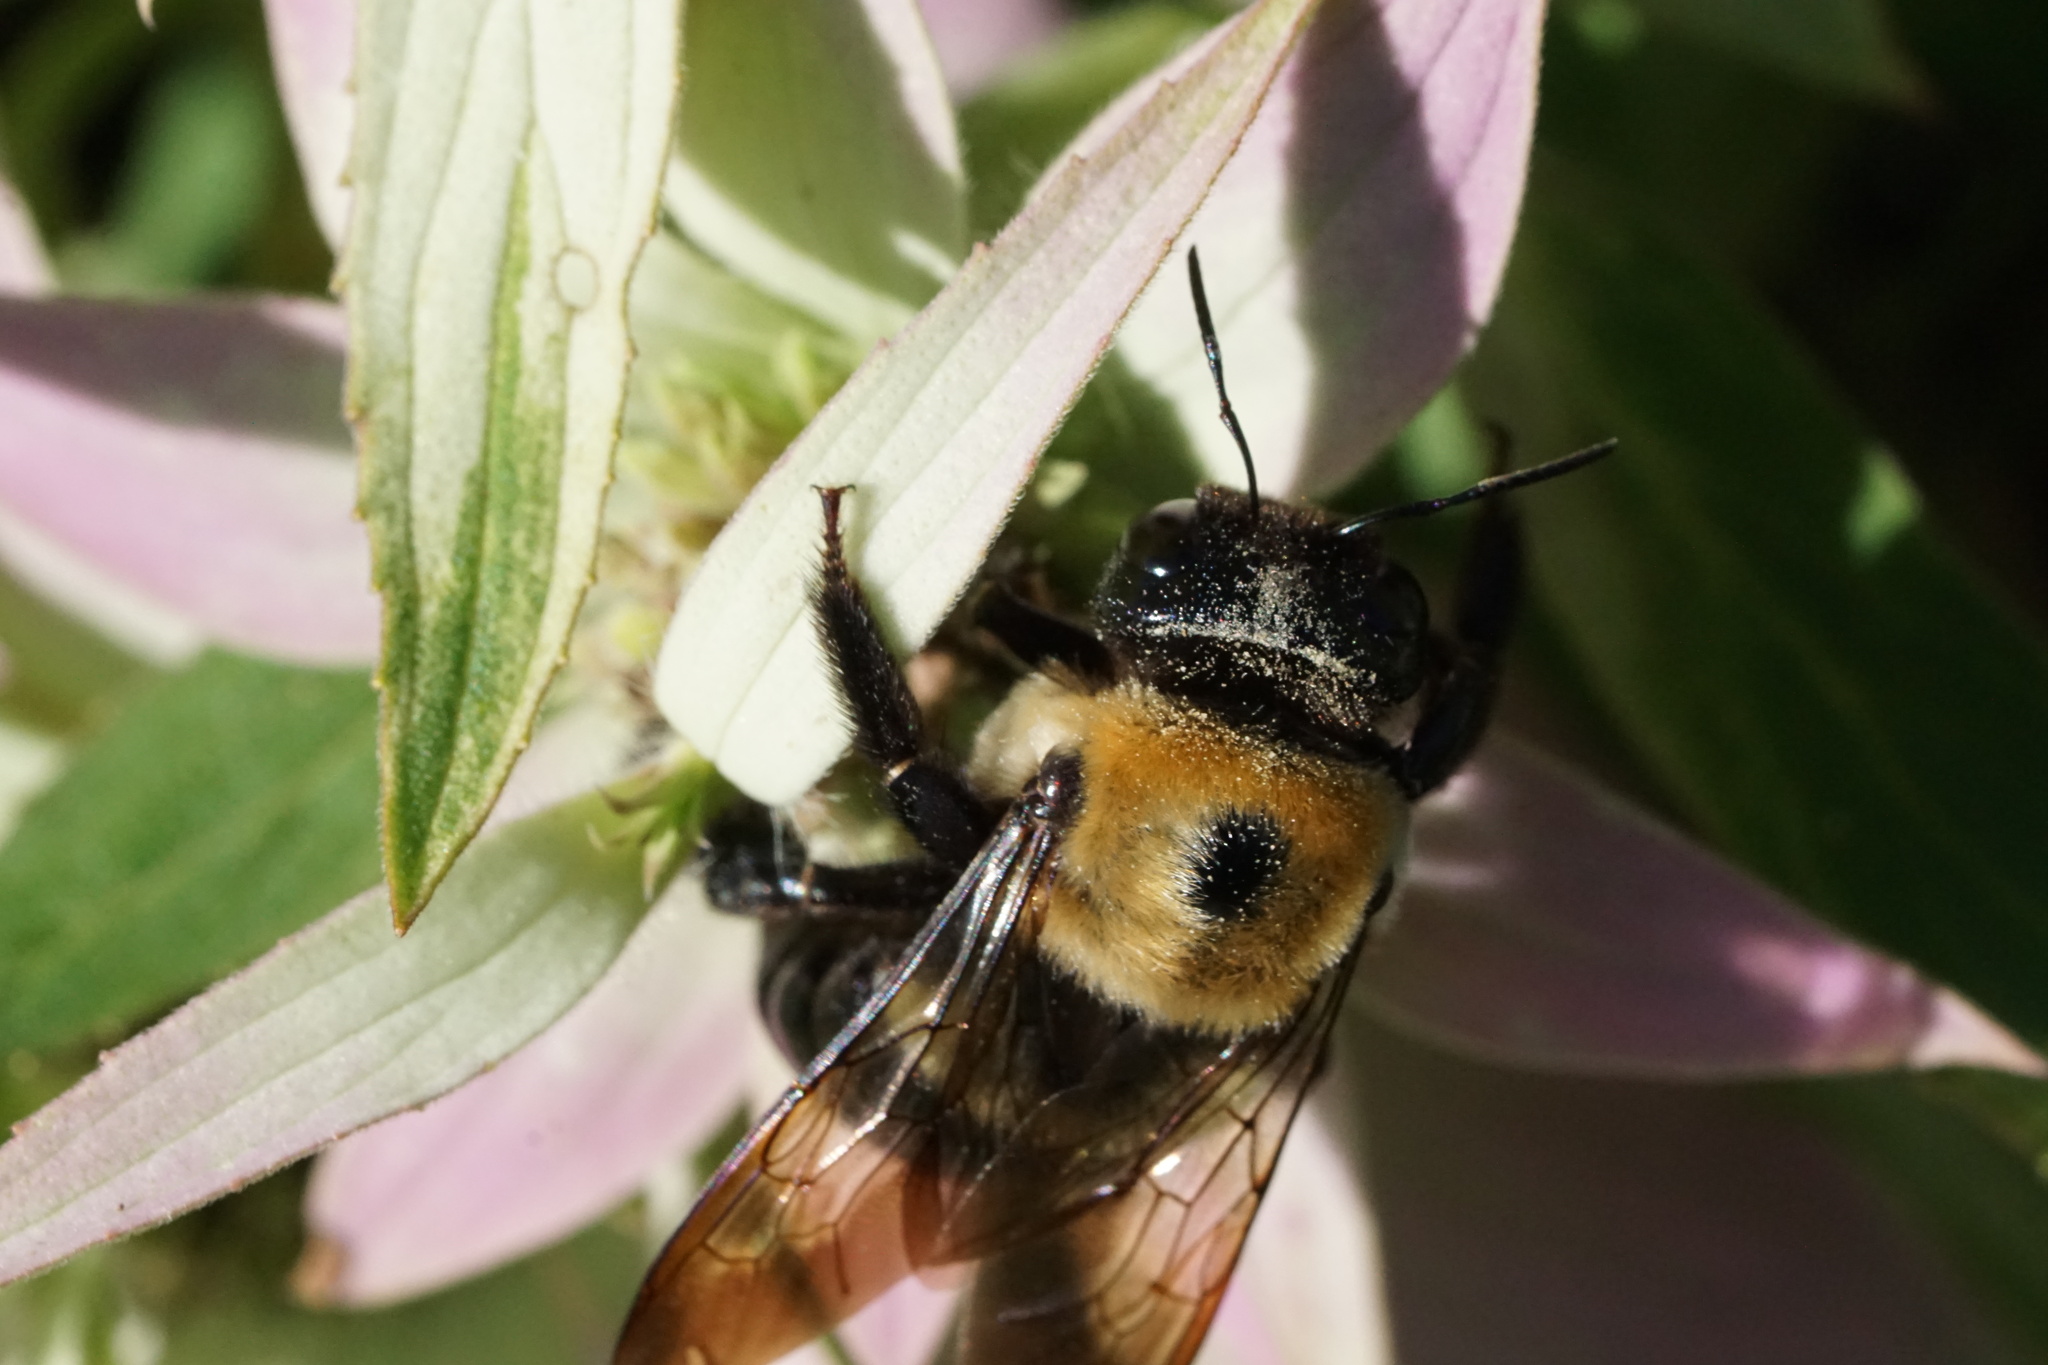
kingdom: Animalia
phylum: Arthropoda
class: Insecta
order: Hymenoptera
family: Apidae
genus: Xylocopa
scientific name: Xylocopa virginica
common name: Carpenter bee
